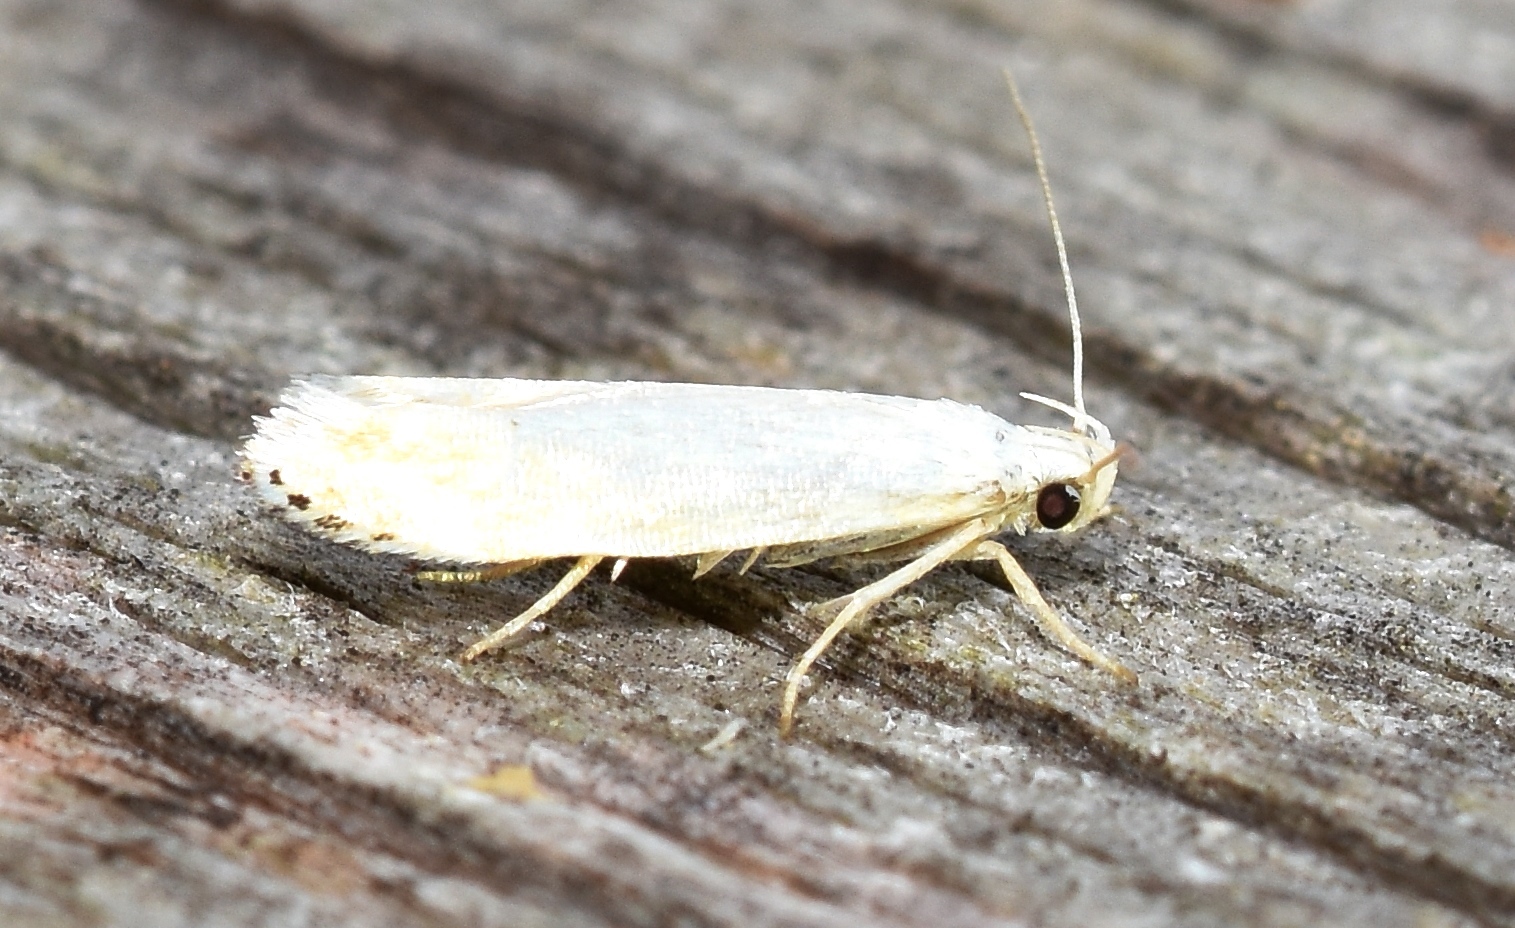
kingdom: Animalia
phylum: Arthropoda
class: Insecta
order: Lepidoptera
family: Gelechiidae
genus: Coleotechnites
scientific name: Coleotechnites variiella
